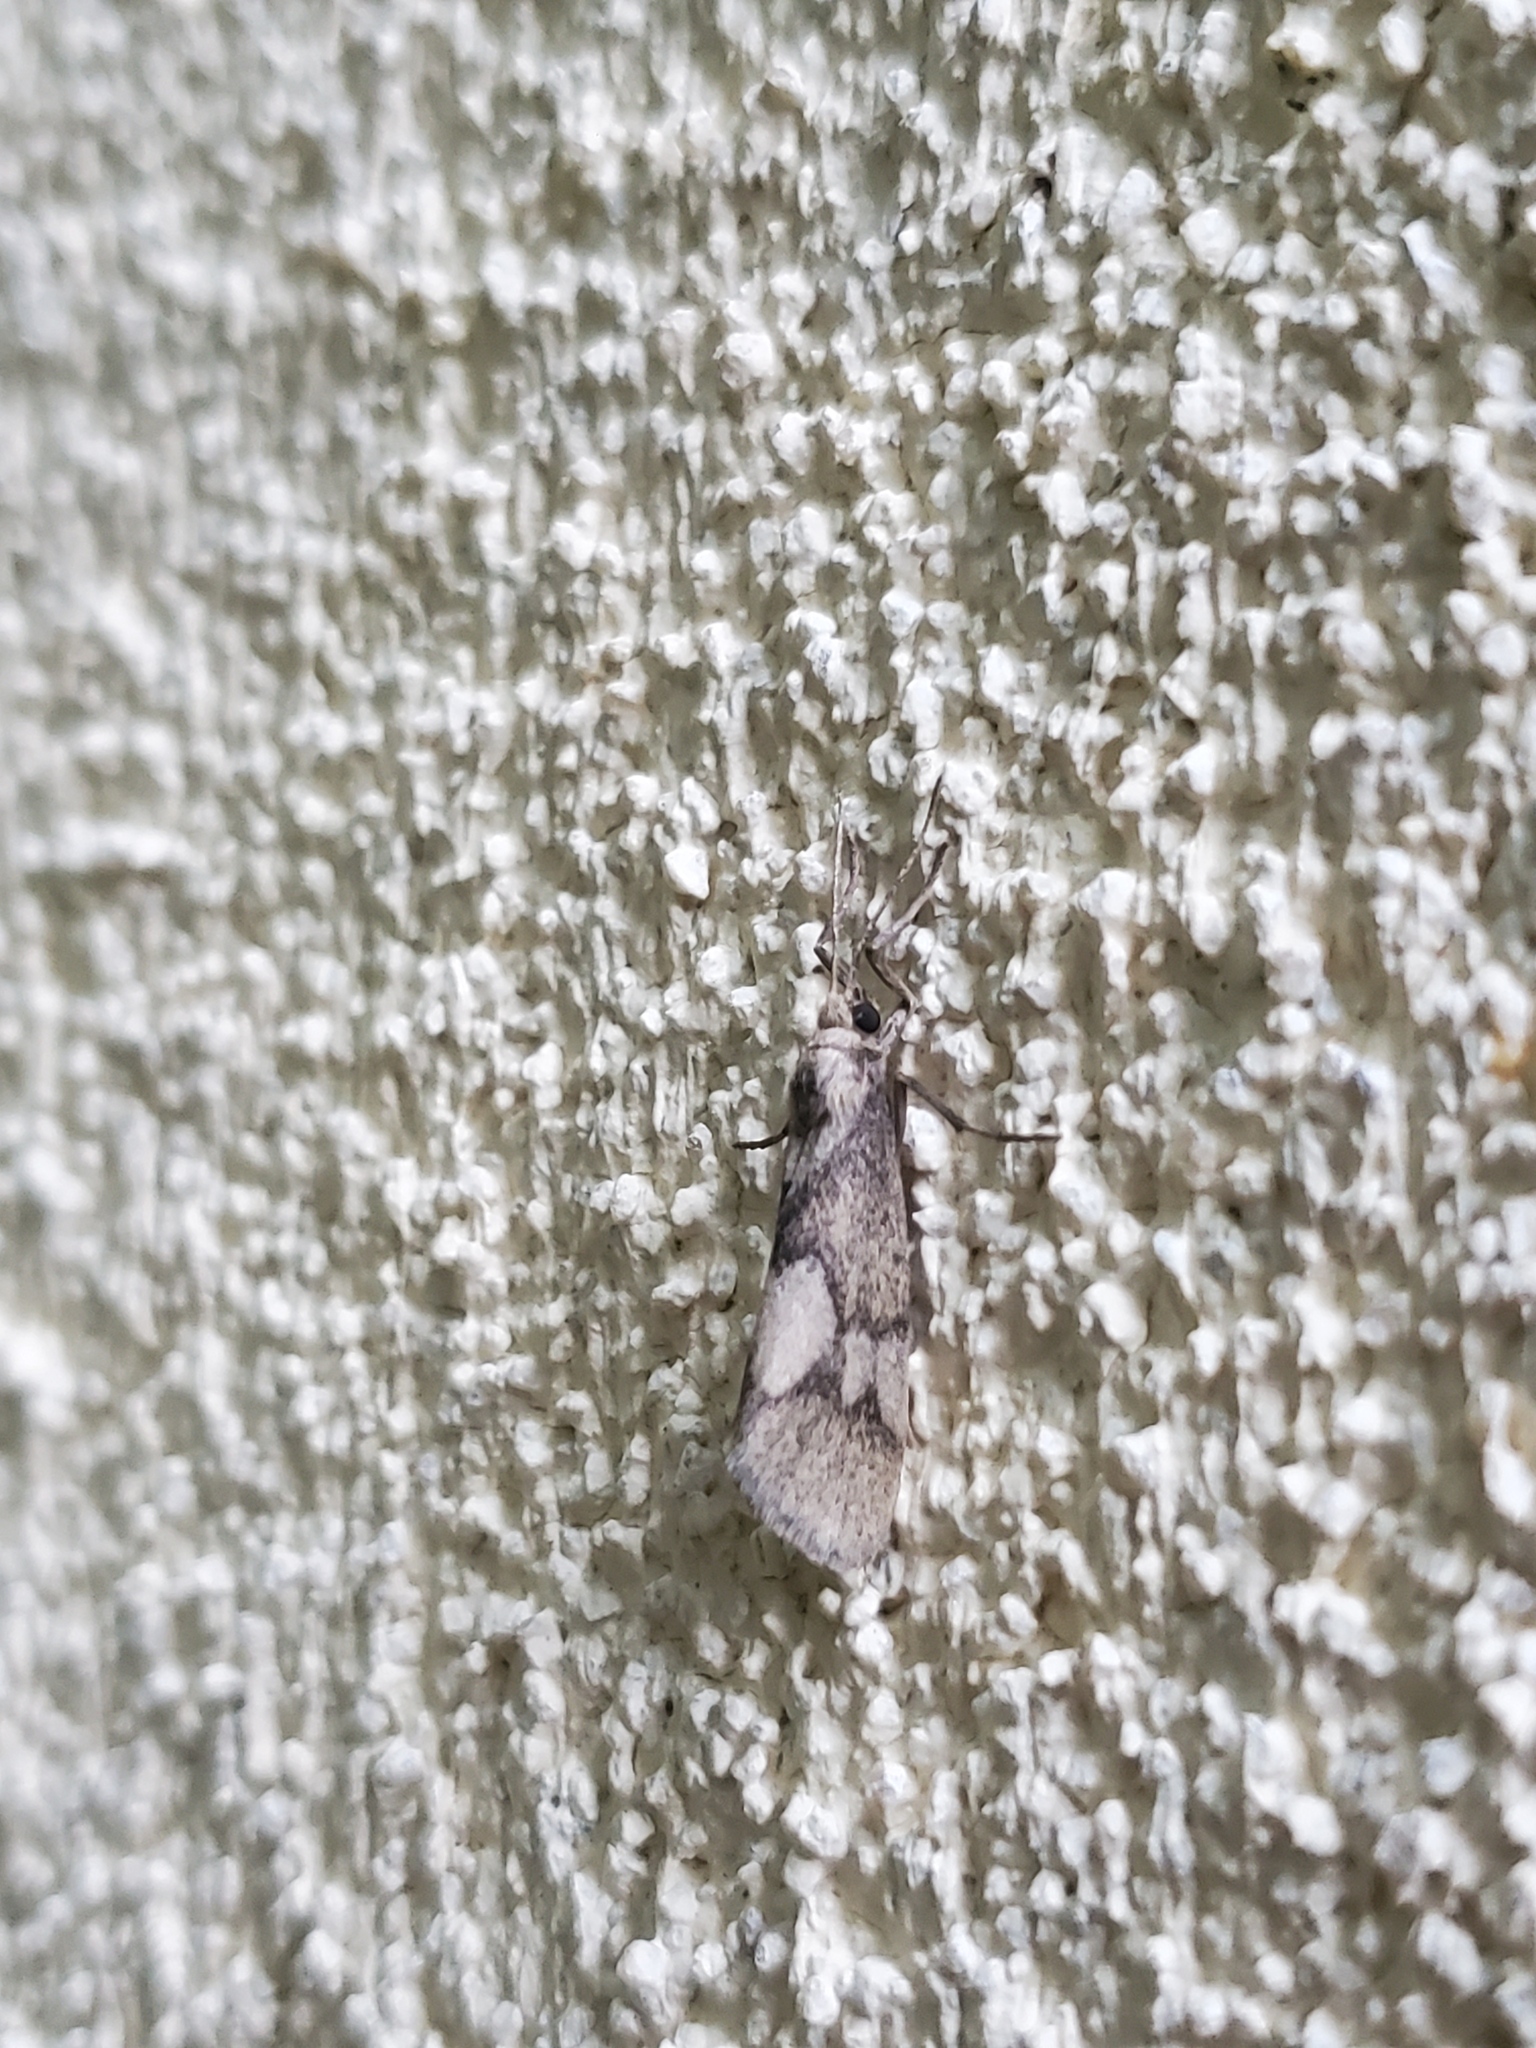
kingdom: Animalia
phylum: Arthropoda
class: Insecta
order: Lepidoptera
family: Erebidae
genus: Cisthene
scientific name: Cisthene faustinula
